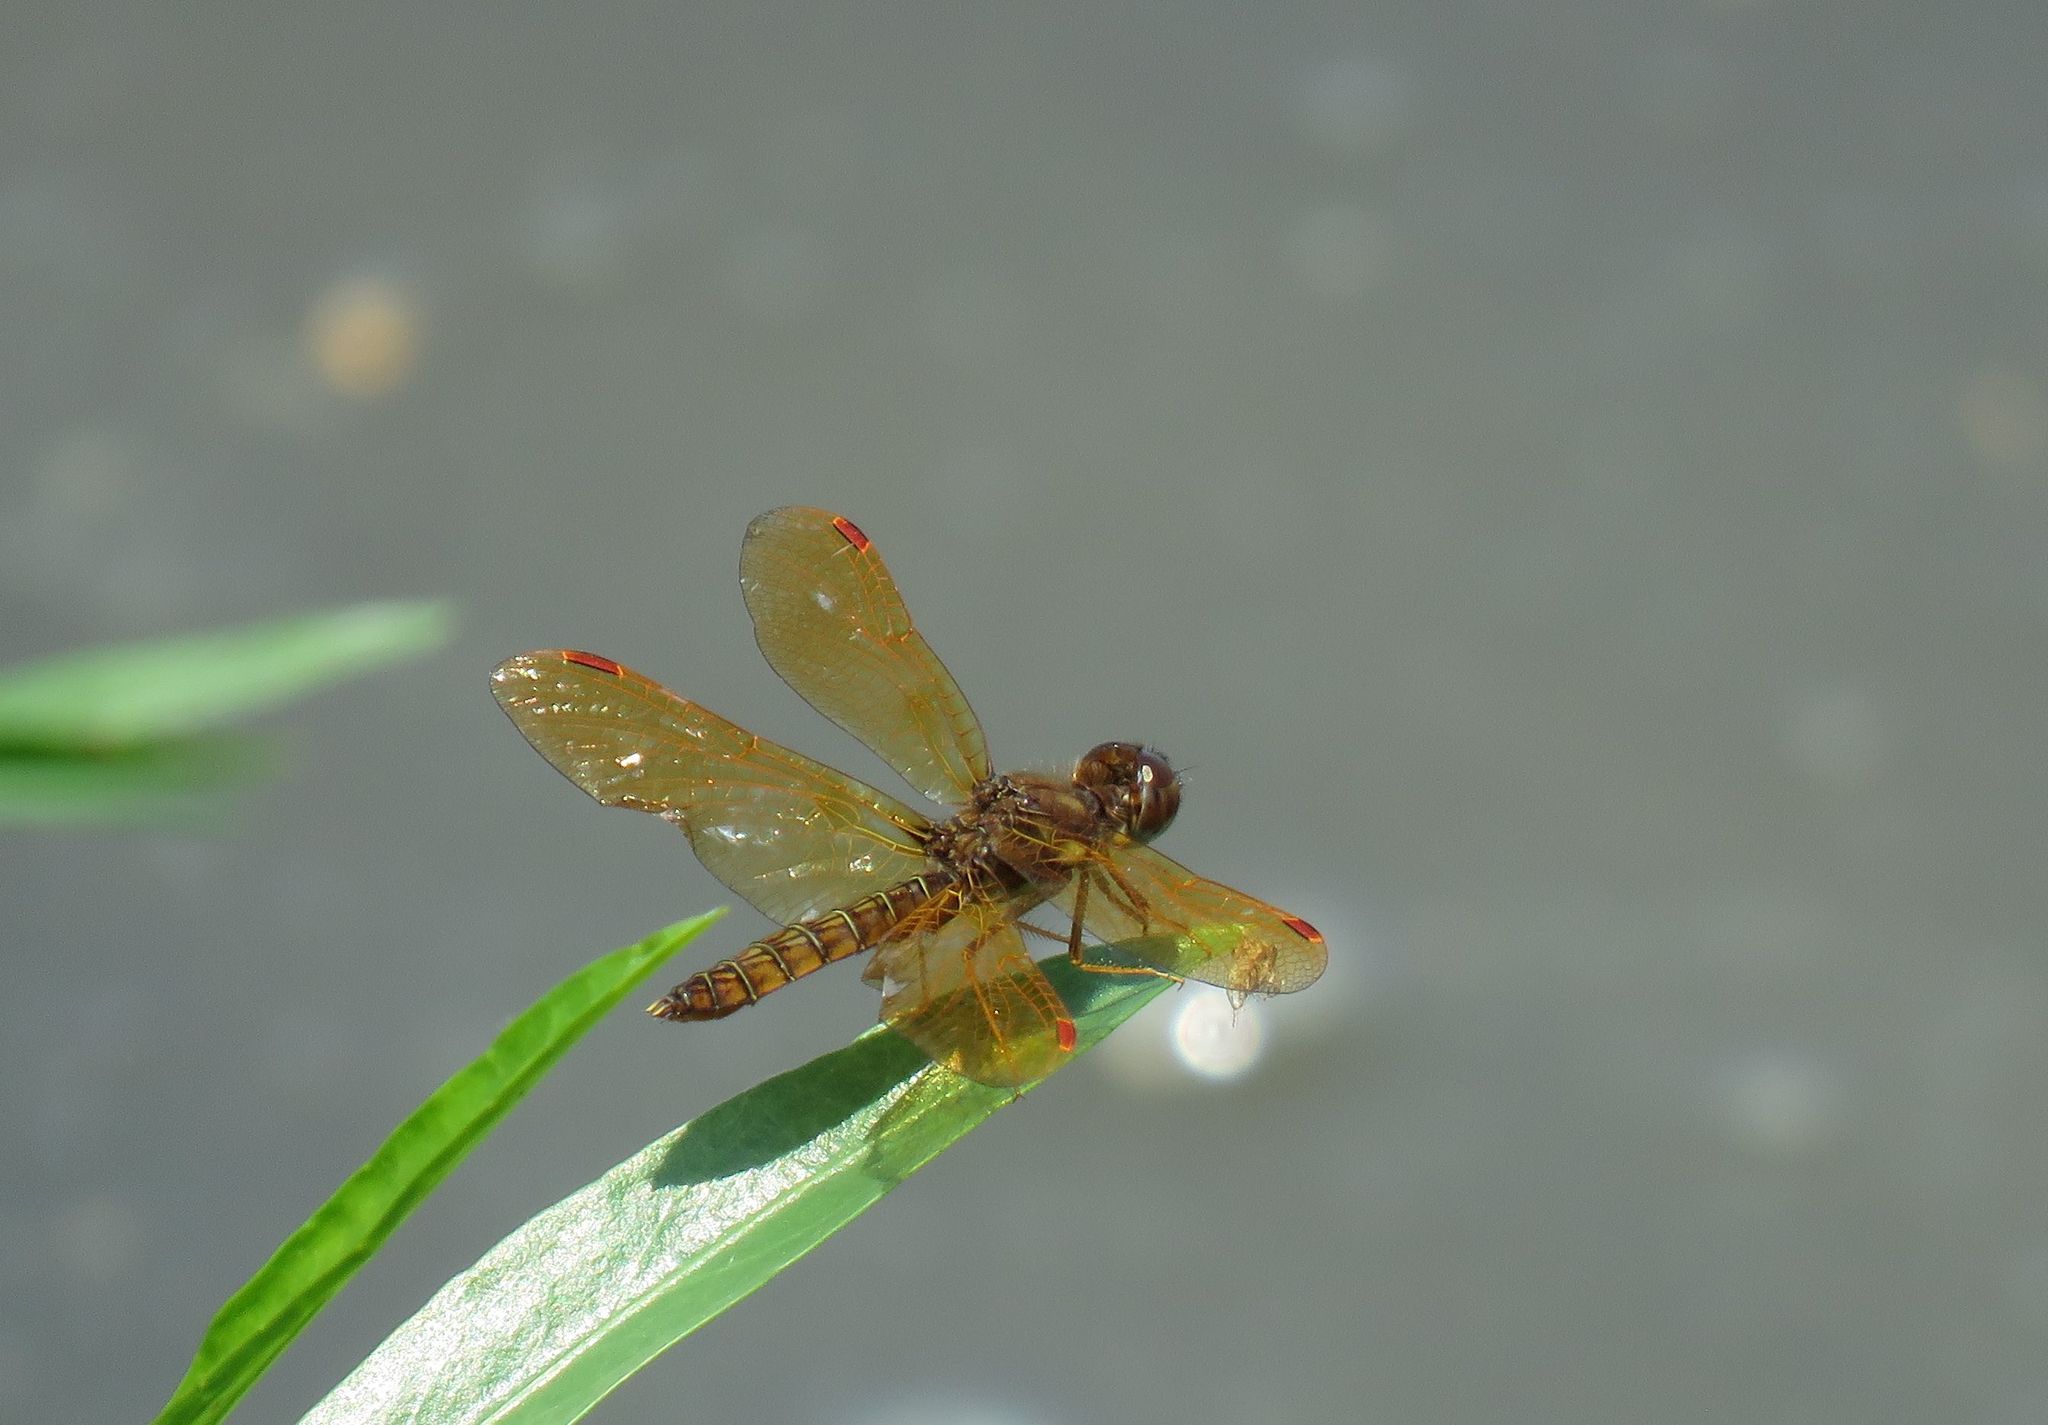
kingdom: Animalia
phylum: Arthropoda
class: Insecta
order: Odonata
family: Libellulidae
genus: Perithemis
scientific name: Perithemis tenera
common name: Eastern amberwing
